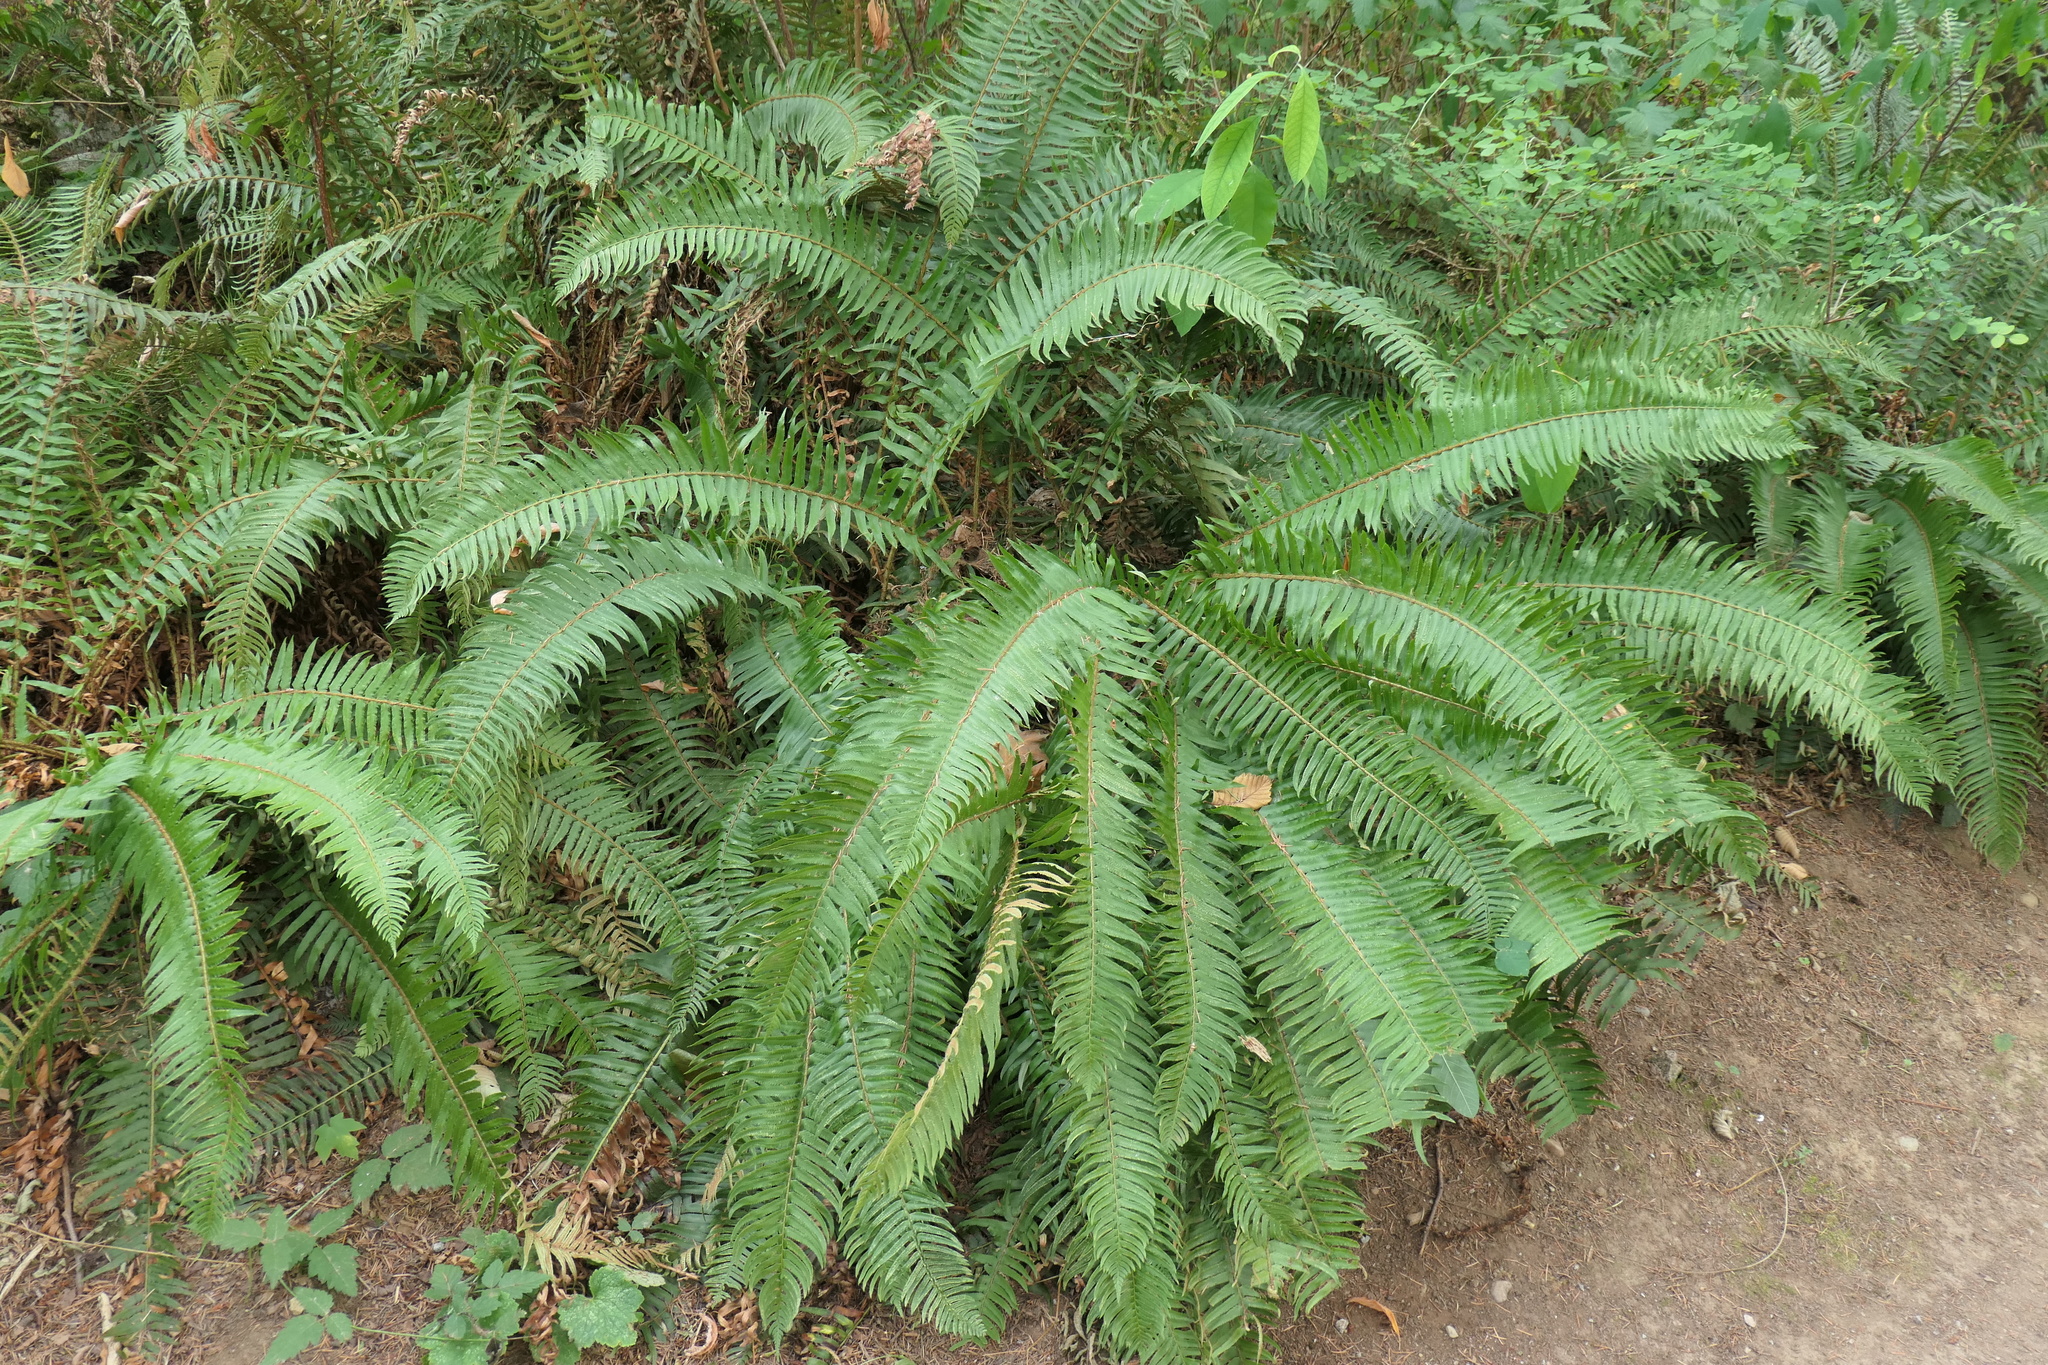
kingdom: Plantae
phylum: Tracheophyta
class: Polypodiopsida
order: Polypodiales
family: Dryopteridaceae
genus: Polystichum
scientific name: Polystichum munitum
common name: Western sword-fern
